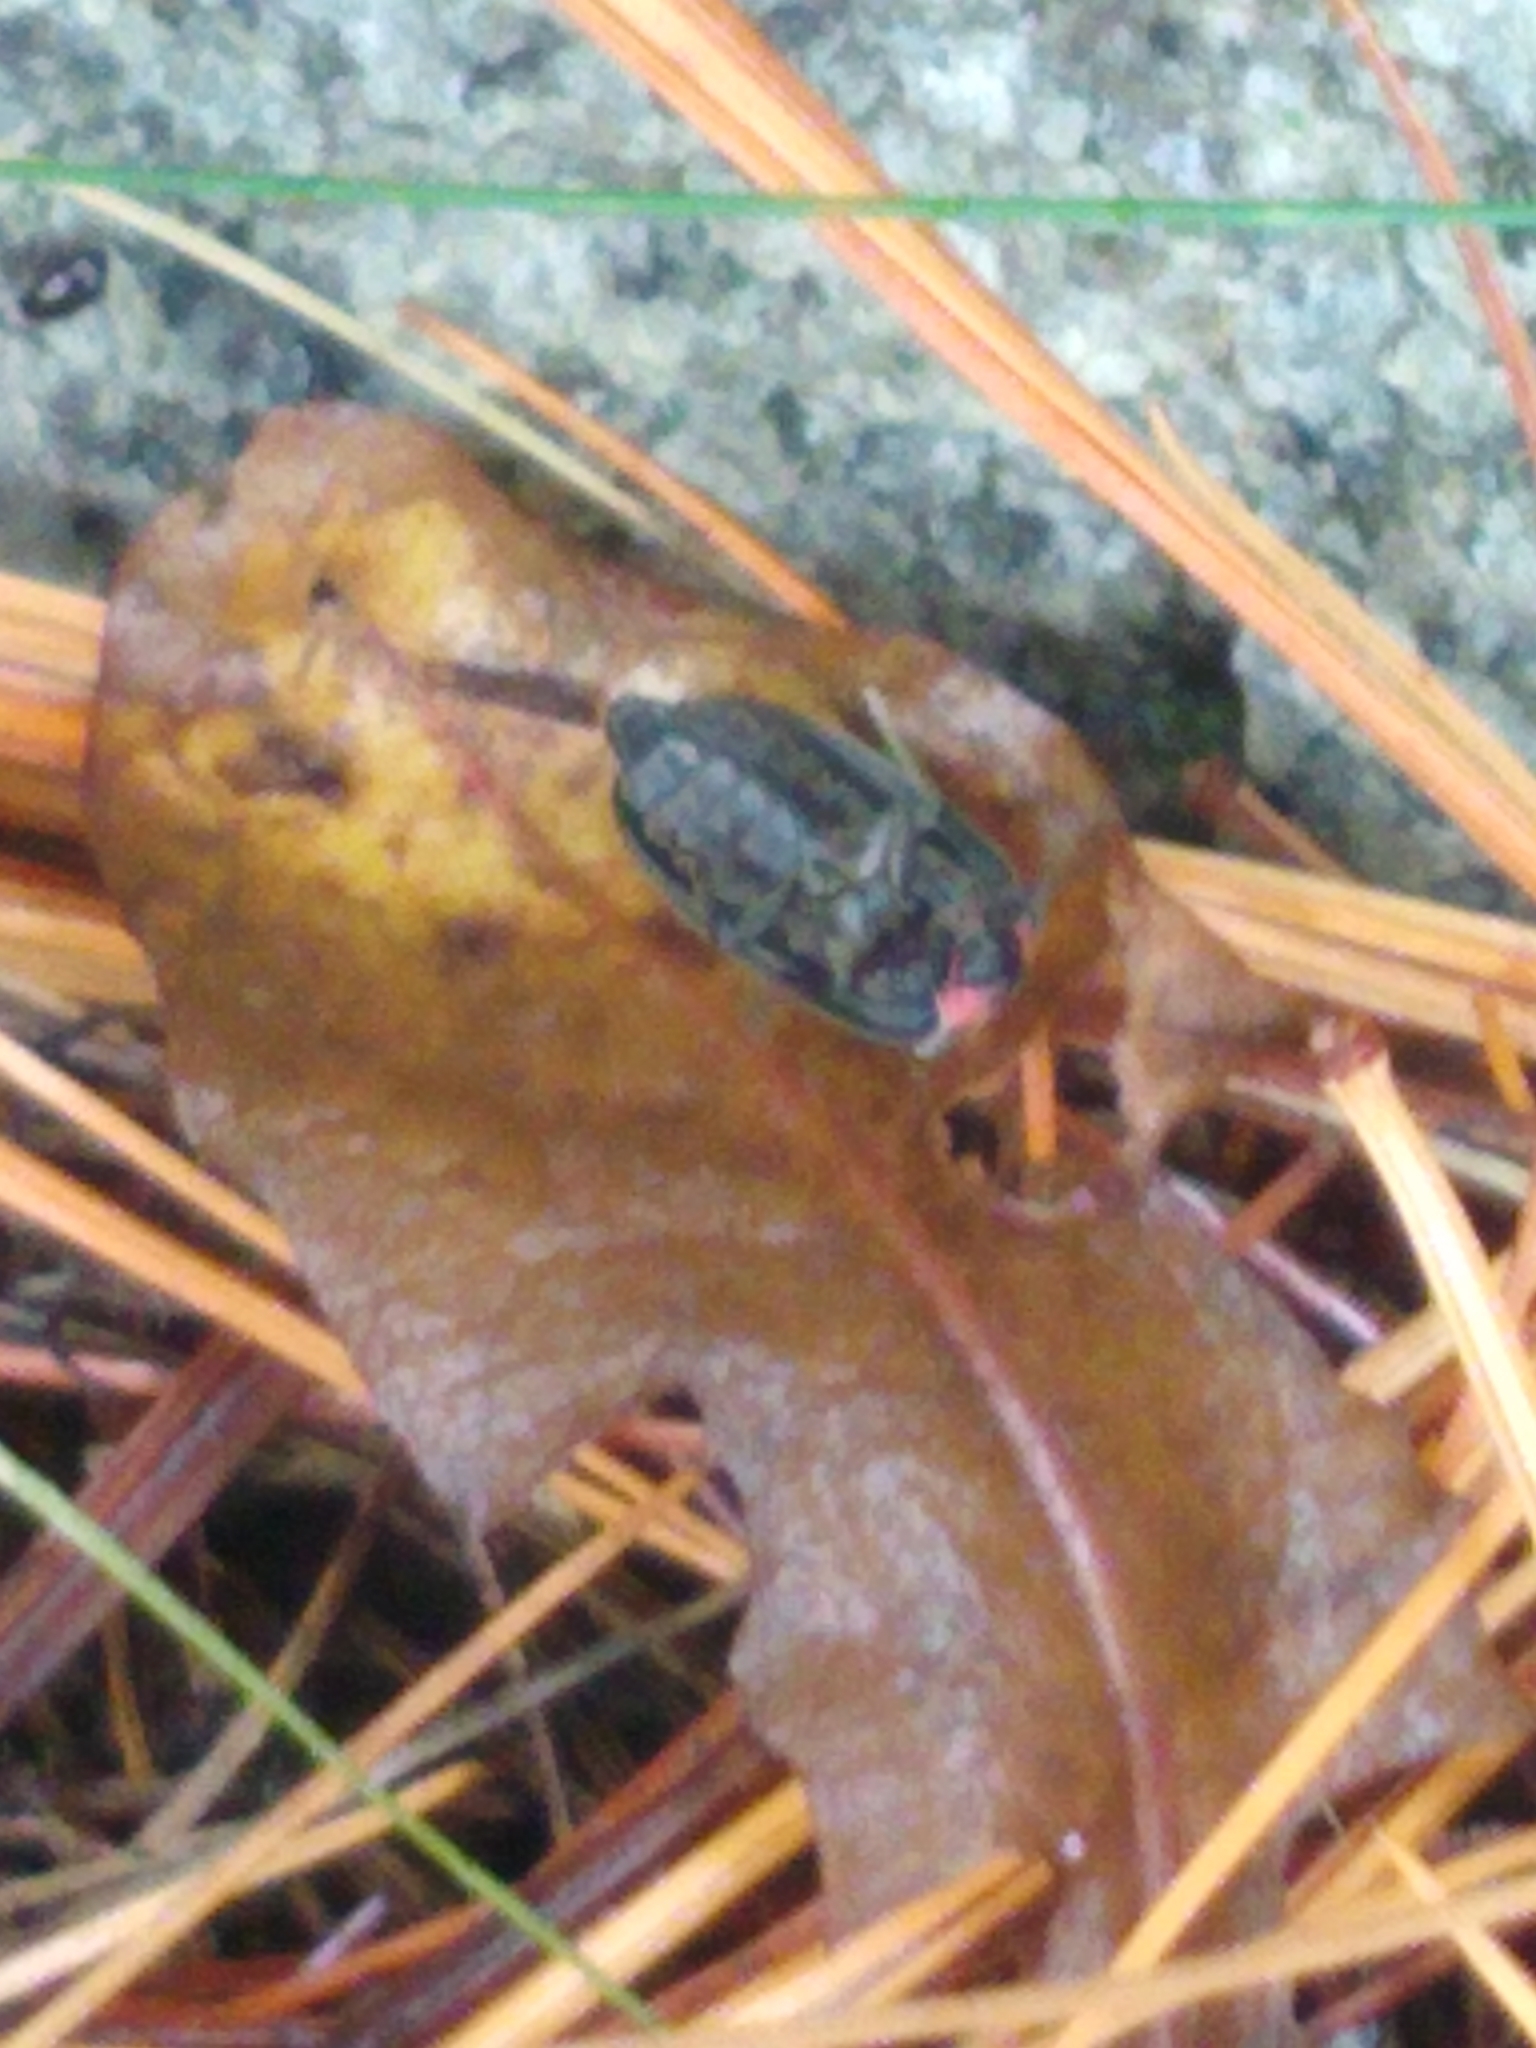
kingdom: Animalia
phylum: Arthropoda
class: Insecta
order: Coleoptera
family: Lampyridae
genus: Photinus
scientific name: Photinus corrusca
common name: Winter firefly
